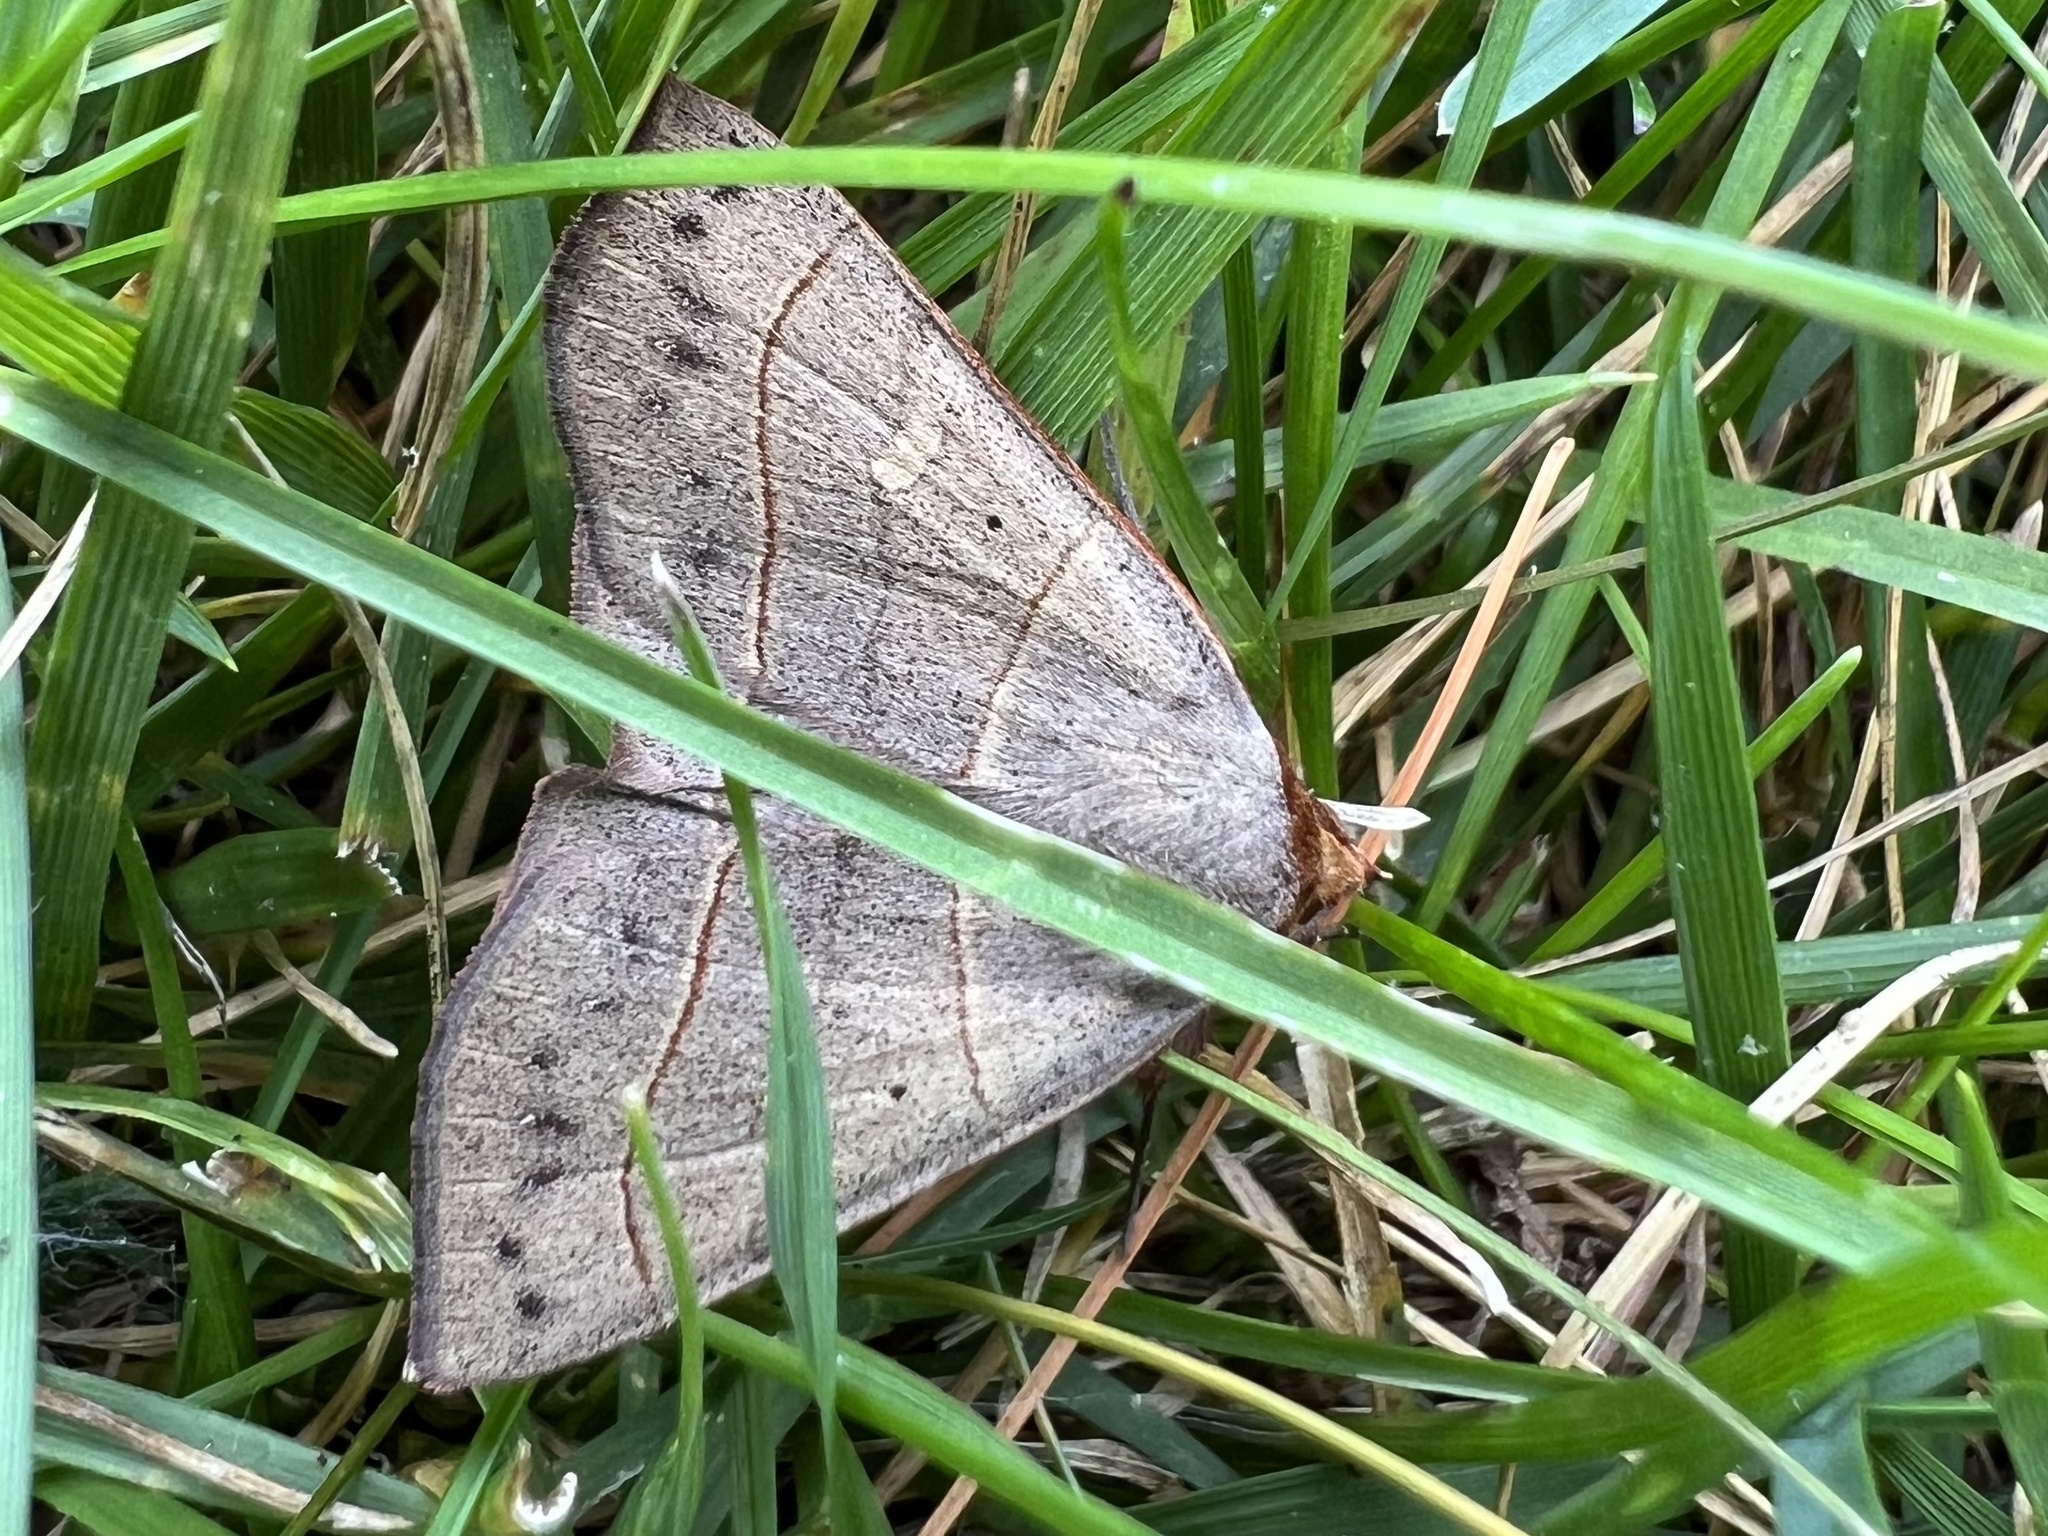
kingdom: Animalia
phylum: Arthropoda
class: Insecta
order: Lepidoptera
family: Erebidae
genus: Panopoda
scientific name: Panopoda rufimargo
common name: Red-lined panopoda moth
